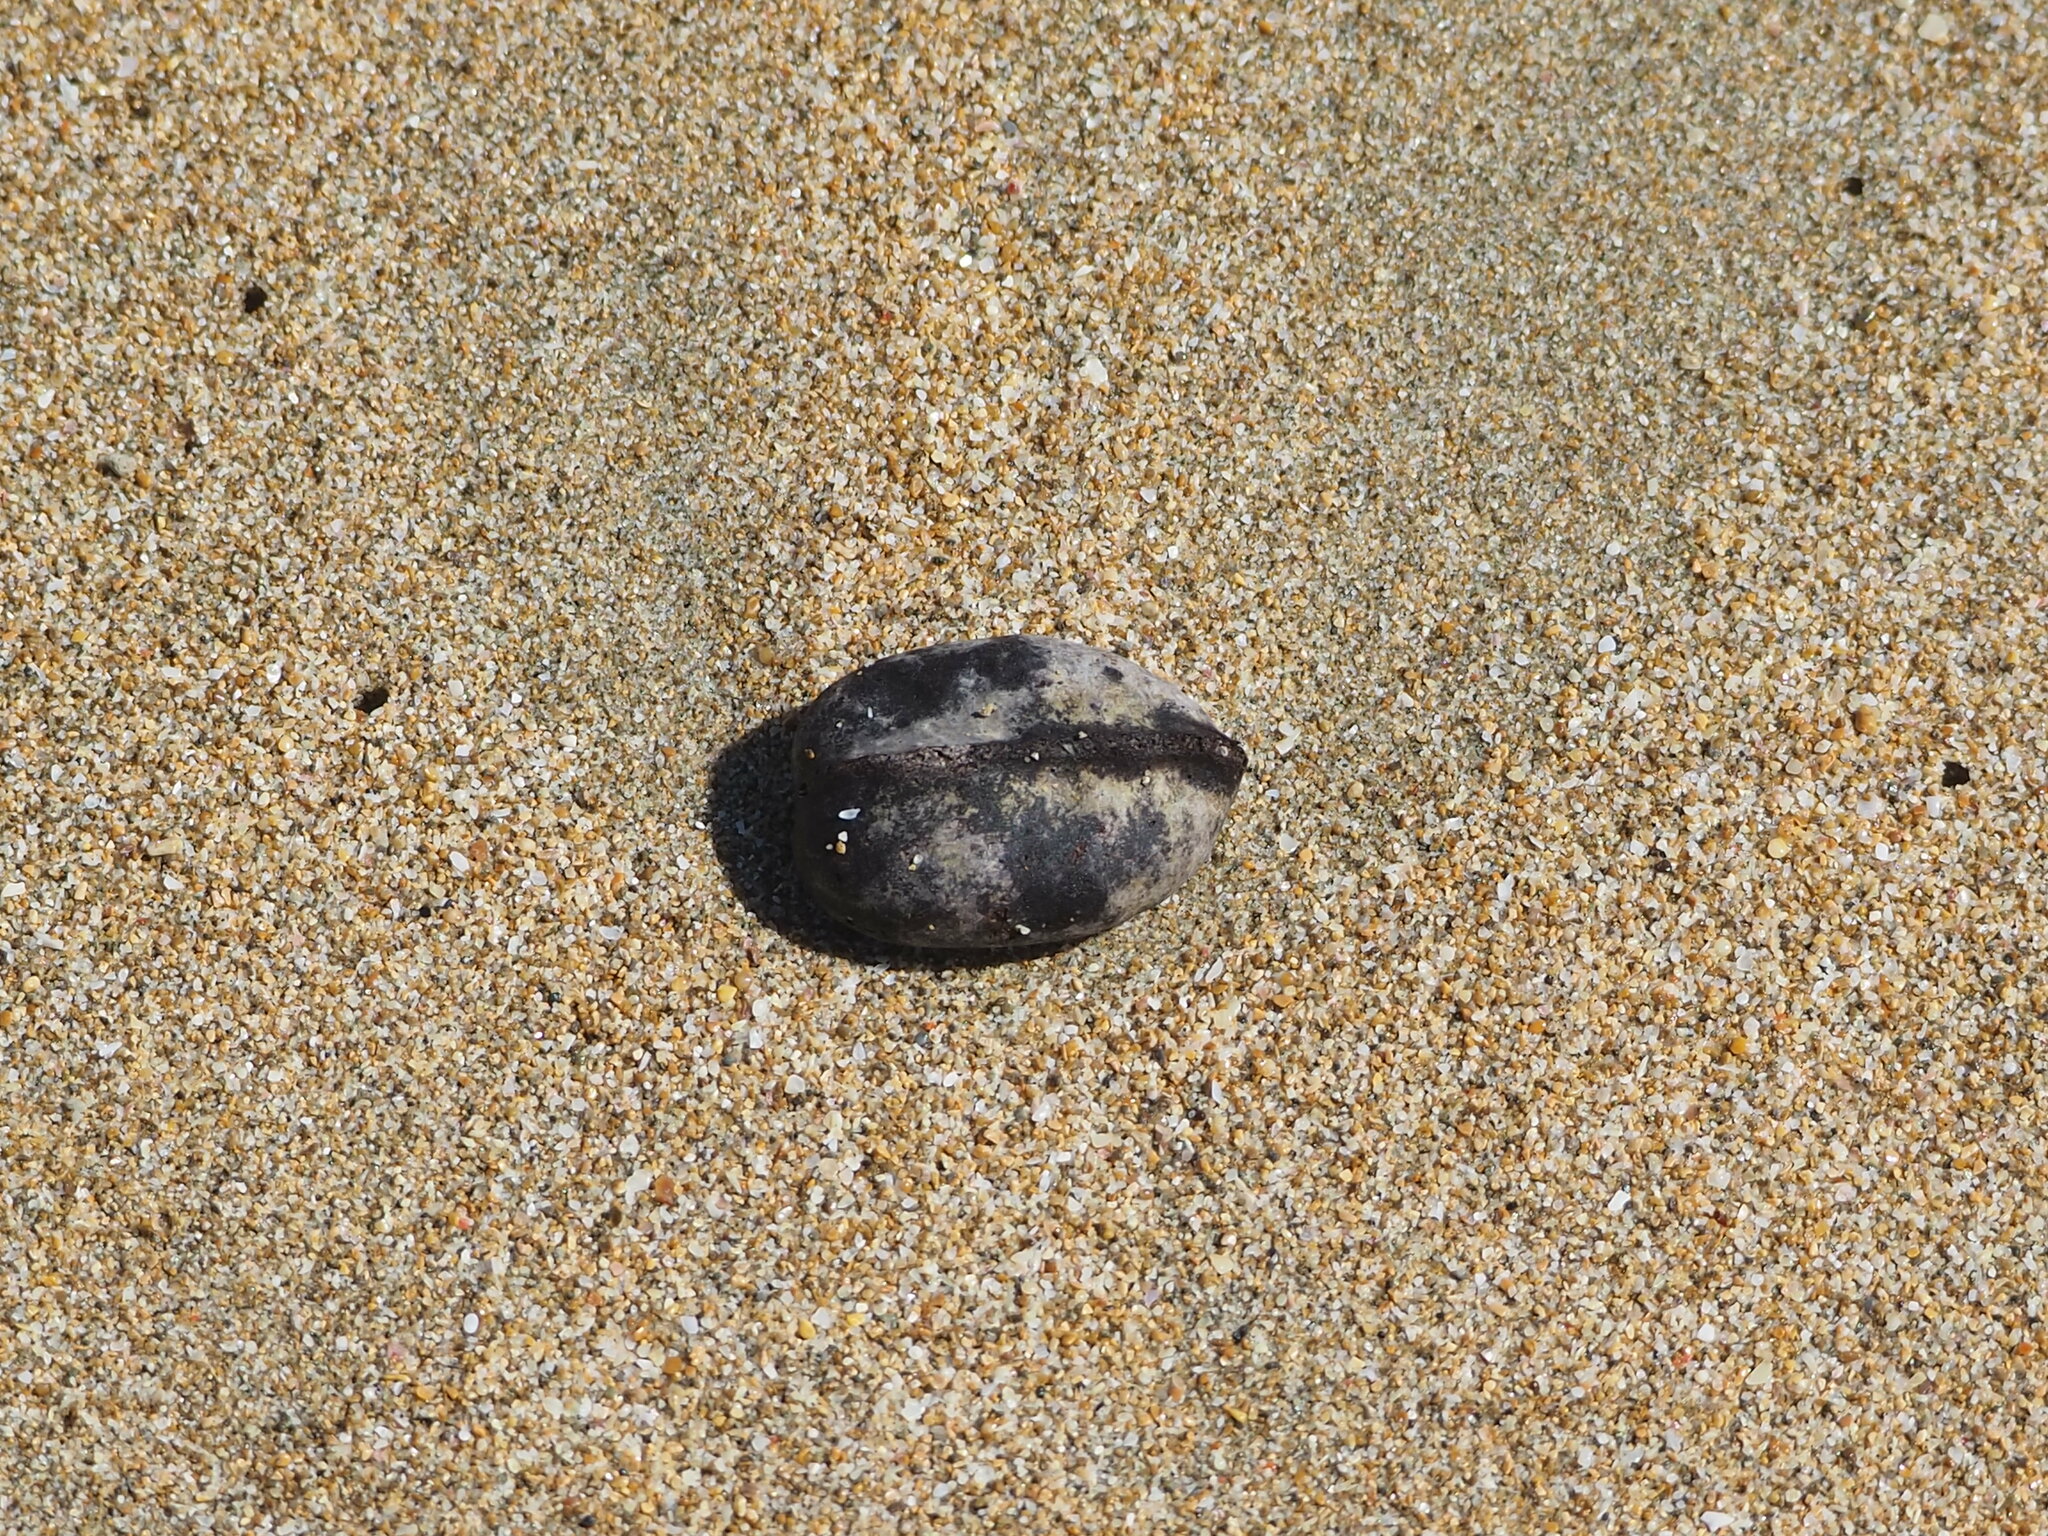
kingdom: Plantae
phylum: Tracheophyta
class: Magnoliopsida
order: Malvales
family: Malvaceae
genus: Heritiera
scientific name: Heritiera littoralis
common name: Looking-glass mangrove
